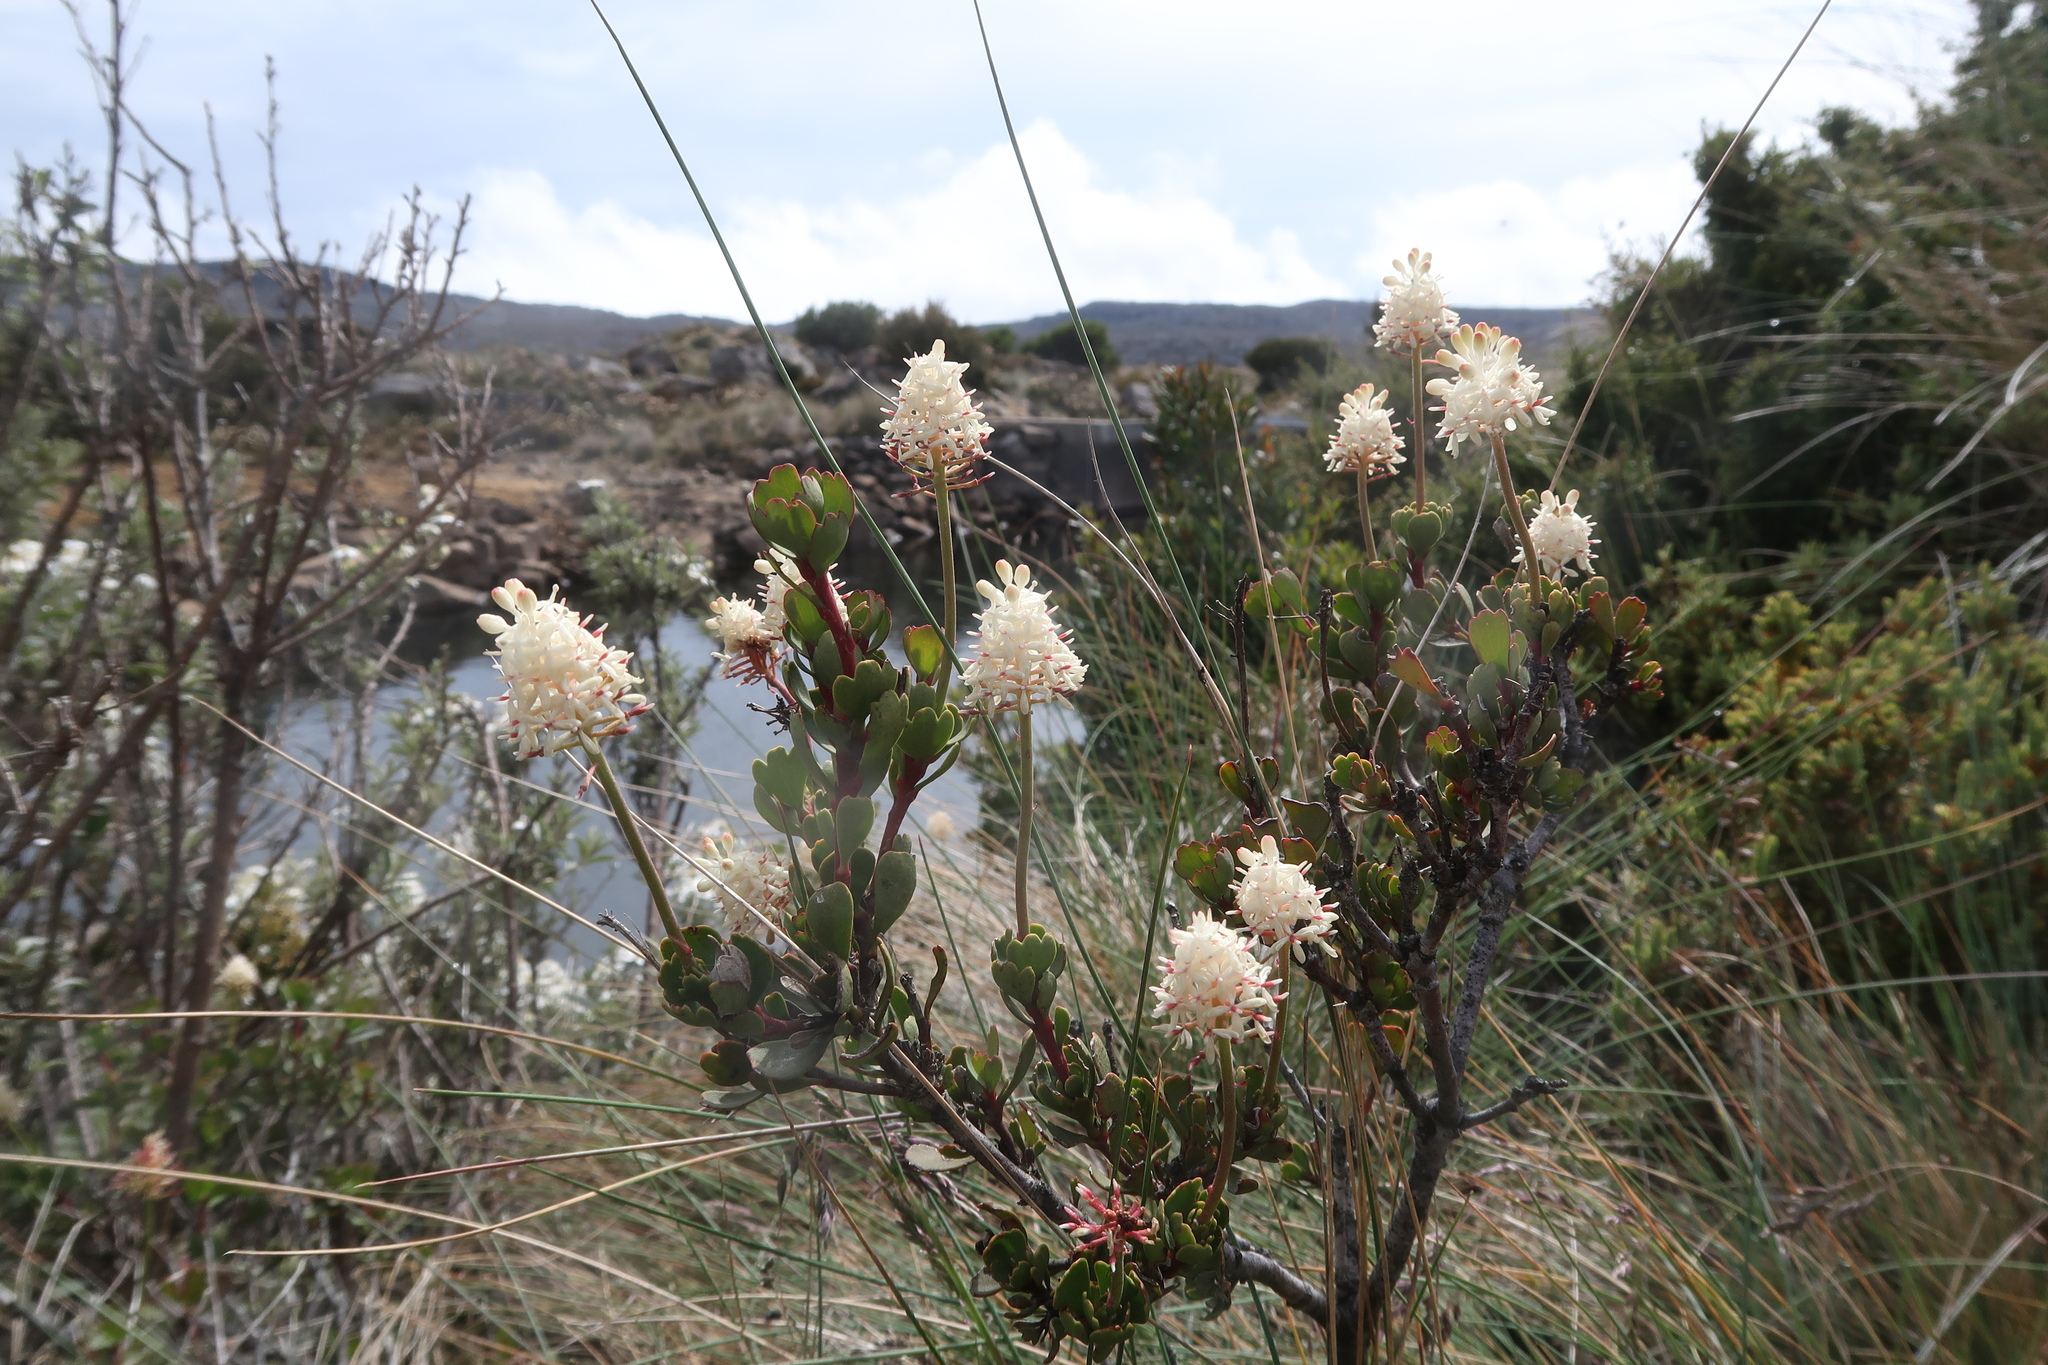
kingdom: Plantae
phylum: Tracheophyta
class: Magnoliopsida
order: Proteales
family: Proteaceae
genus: Bellendena
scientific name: Bellendena montana
